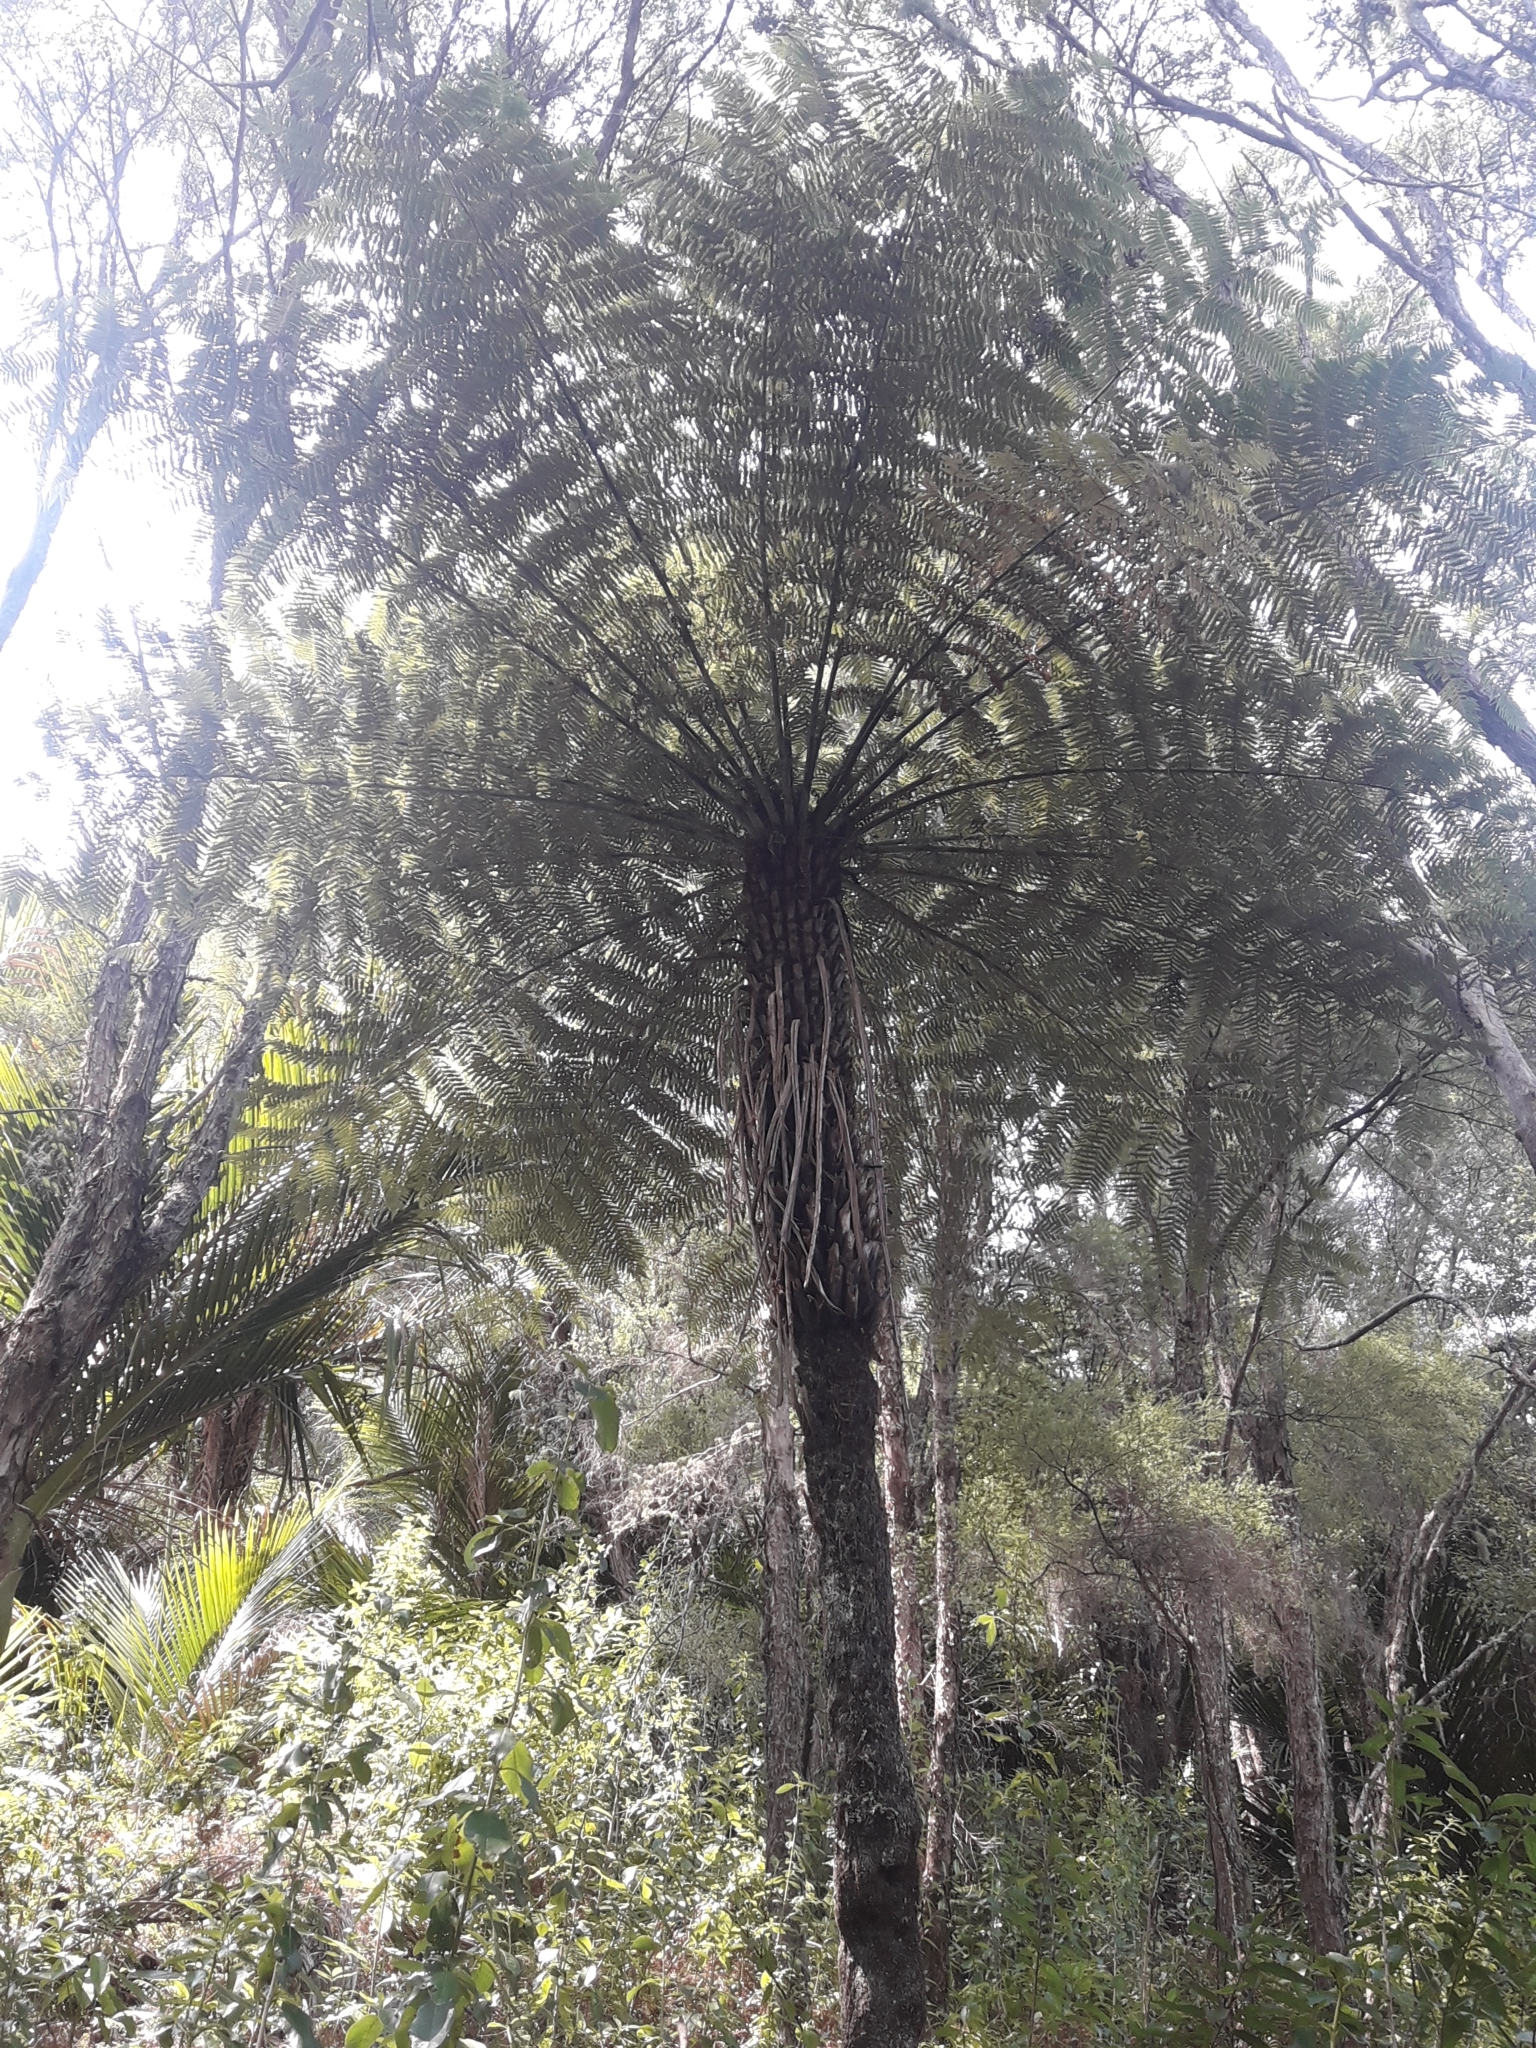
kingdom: Plantae
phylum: Tracheophyta
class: Polypodiopsida
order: Cyatheales
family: Cyatheaceae
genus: Alsophila
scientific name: Alsophila dealbata
